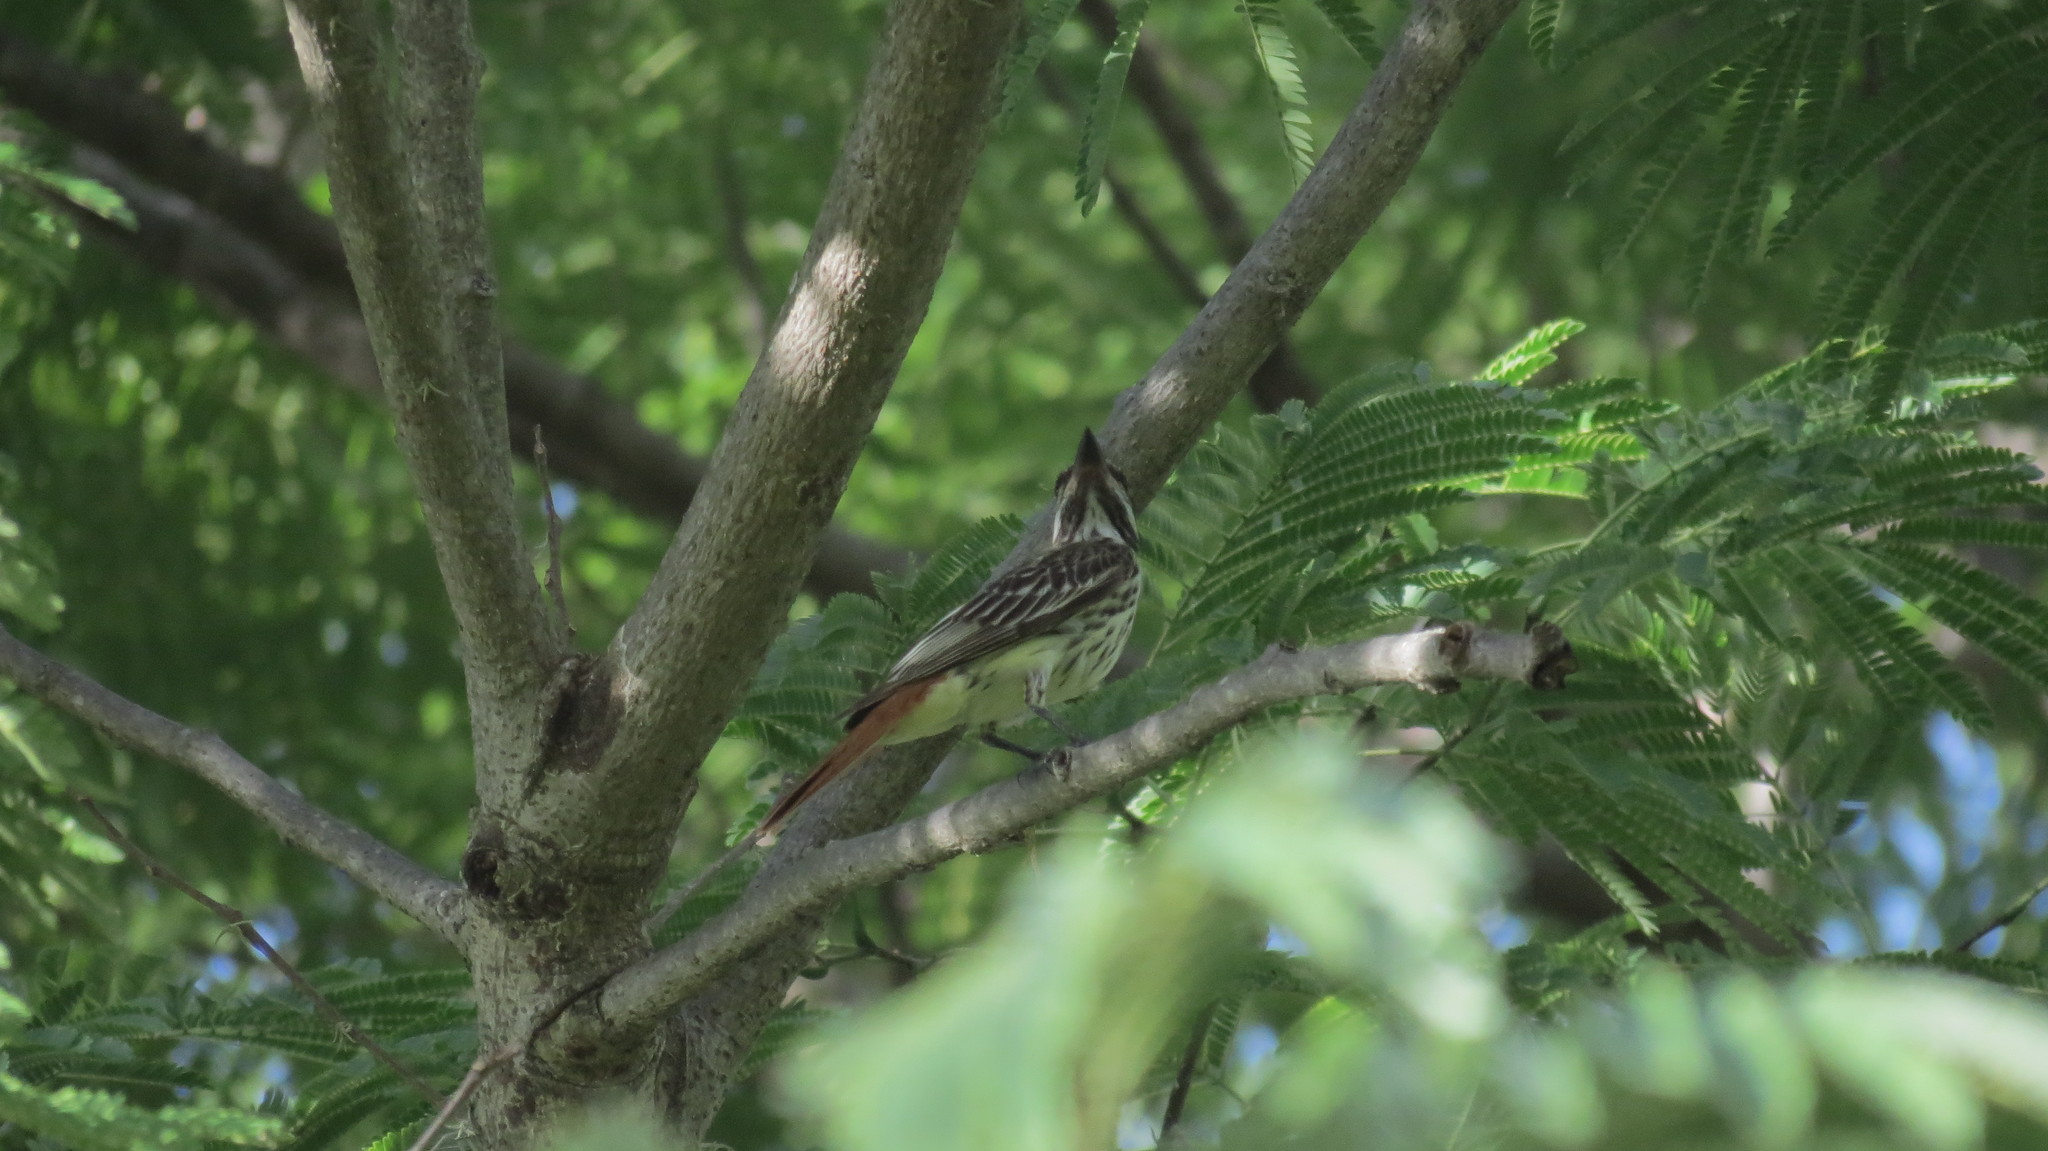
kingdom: Animalia
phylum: Chordata
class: Aves
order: Passeriformes
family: Tyrannidae
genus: Myiodynastes
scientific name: Myiodynastes luteiventris
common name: Sulphur-bellied flycatcher
